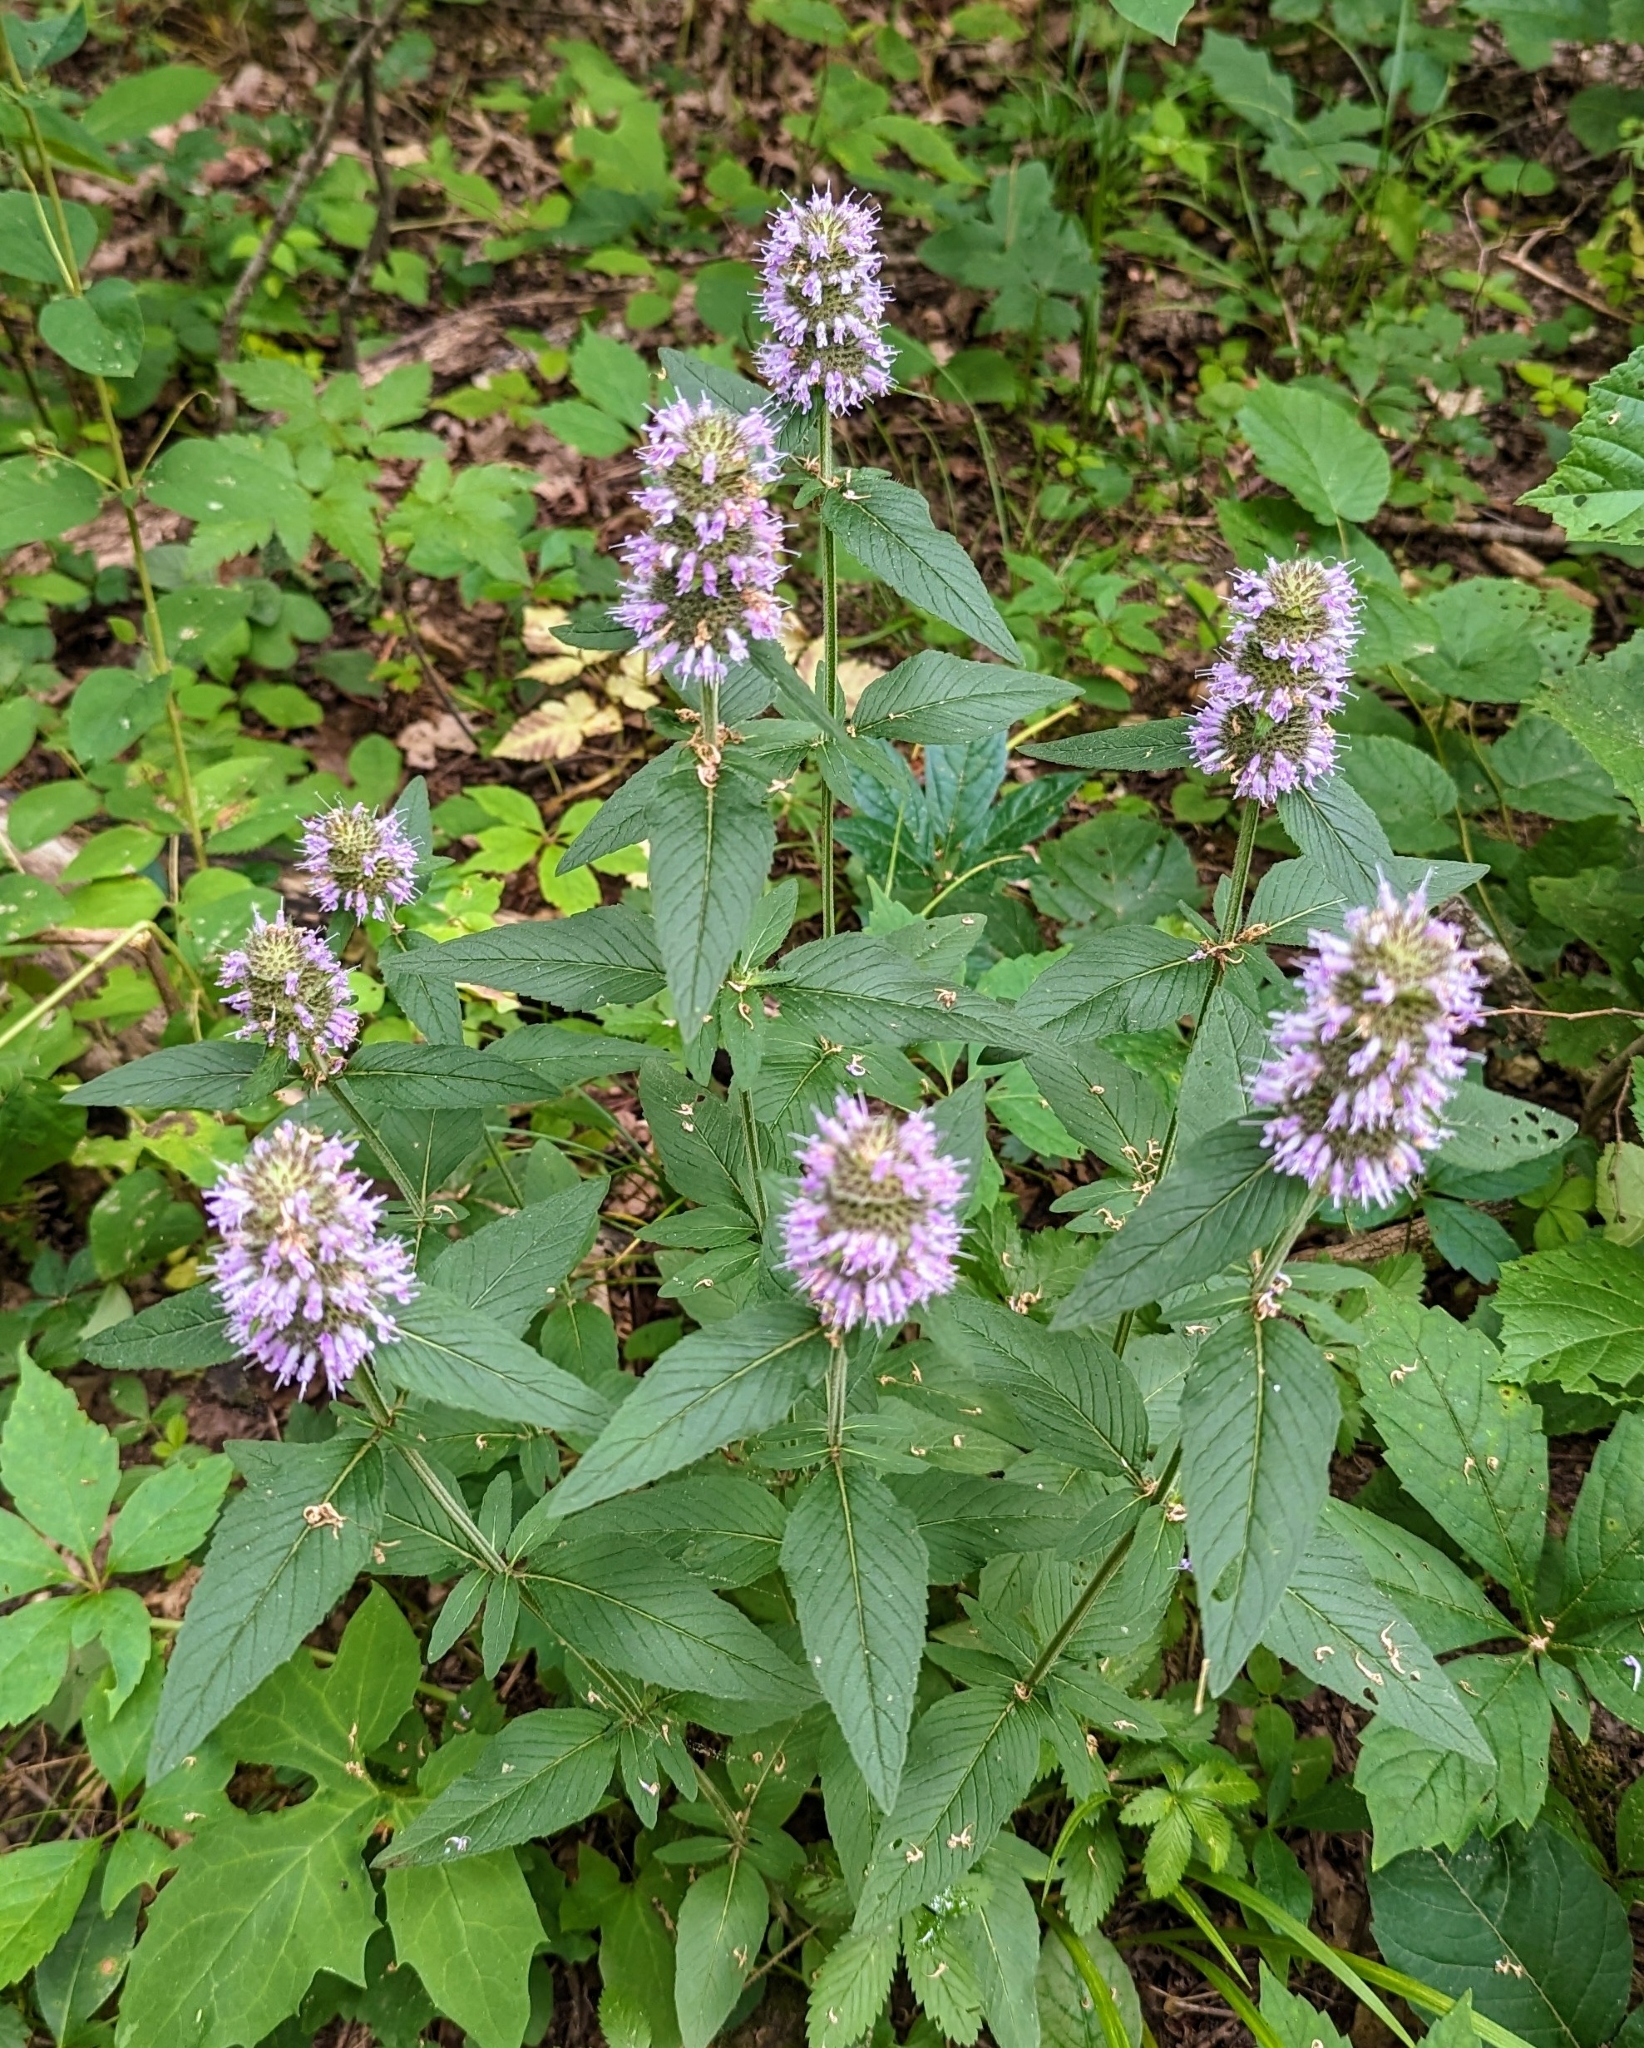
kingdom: Plantae
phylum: Tracheophyta
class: Magnoliopsida
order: Lamiales
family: Lamiaceae
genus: Blephilia
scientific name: Blephilia ciliata
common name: Downy blephilia
